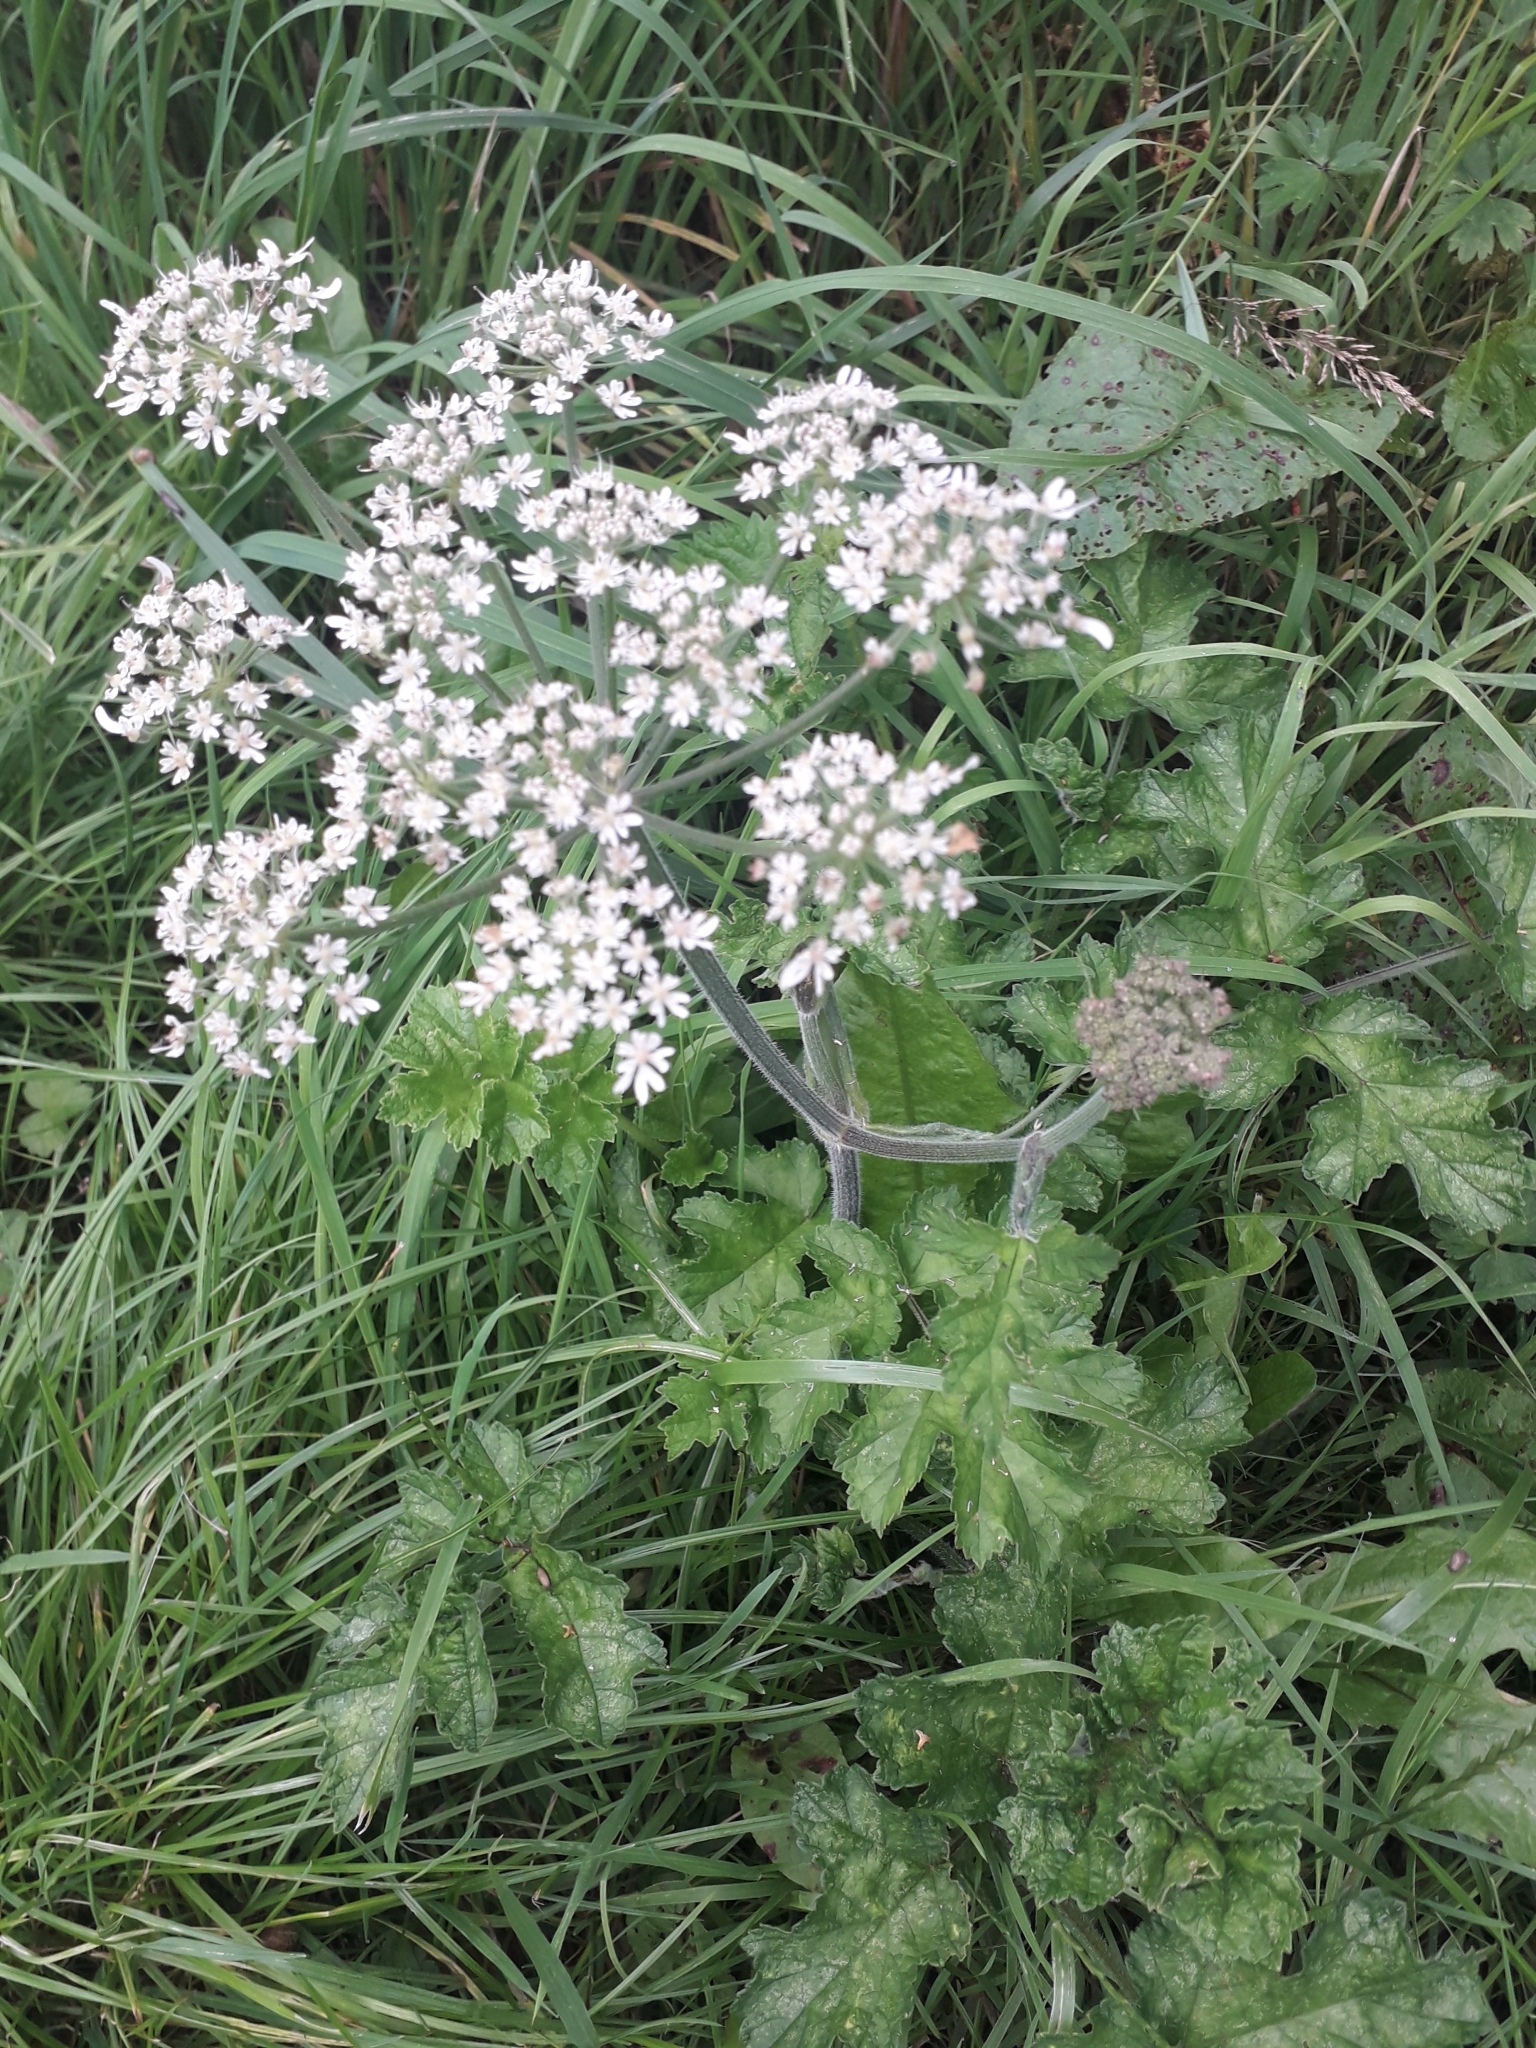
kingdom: Plantae
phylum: Tracheophyta
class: Magnoliopsida
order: Apiales
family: Apiaceae
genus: Heracleum
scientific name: Heracleum sphondylium
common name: Hogweed
